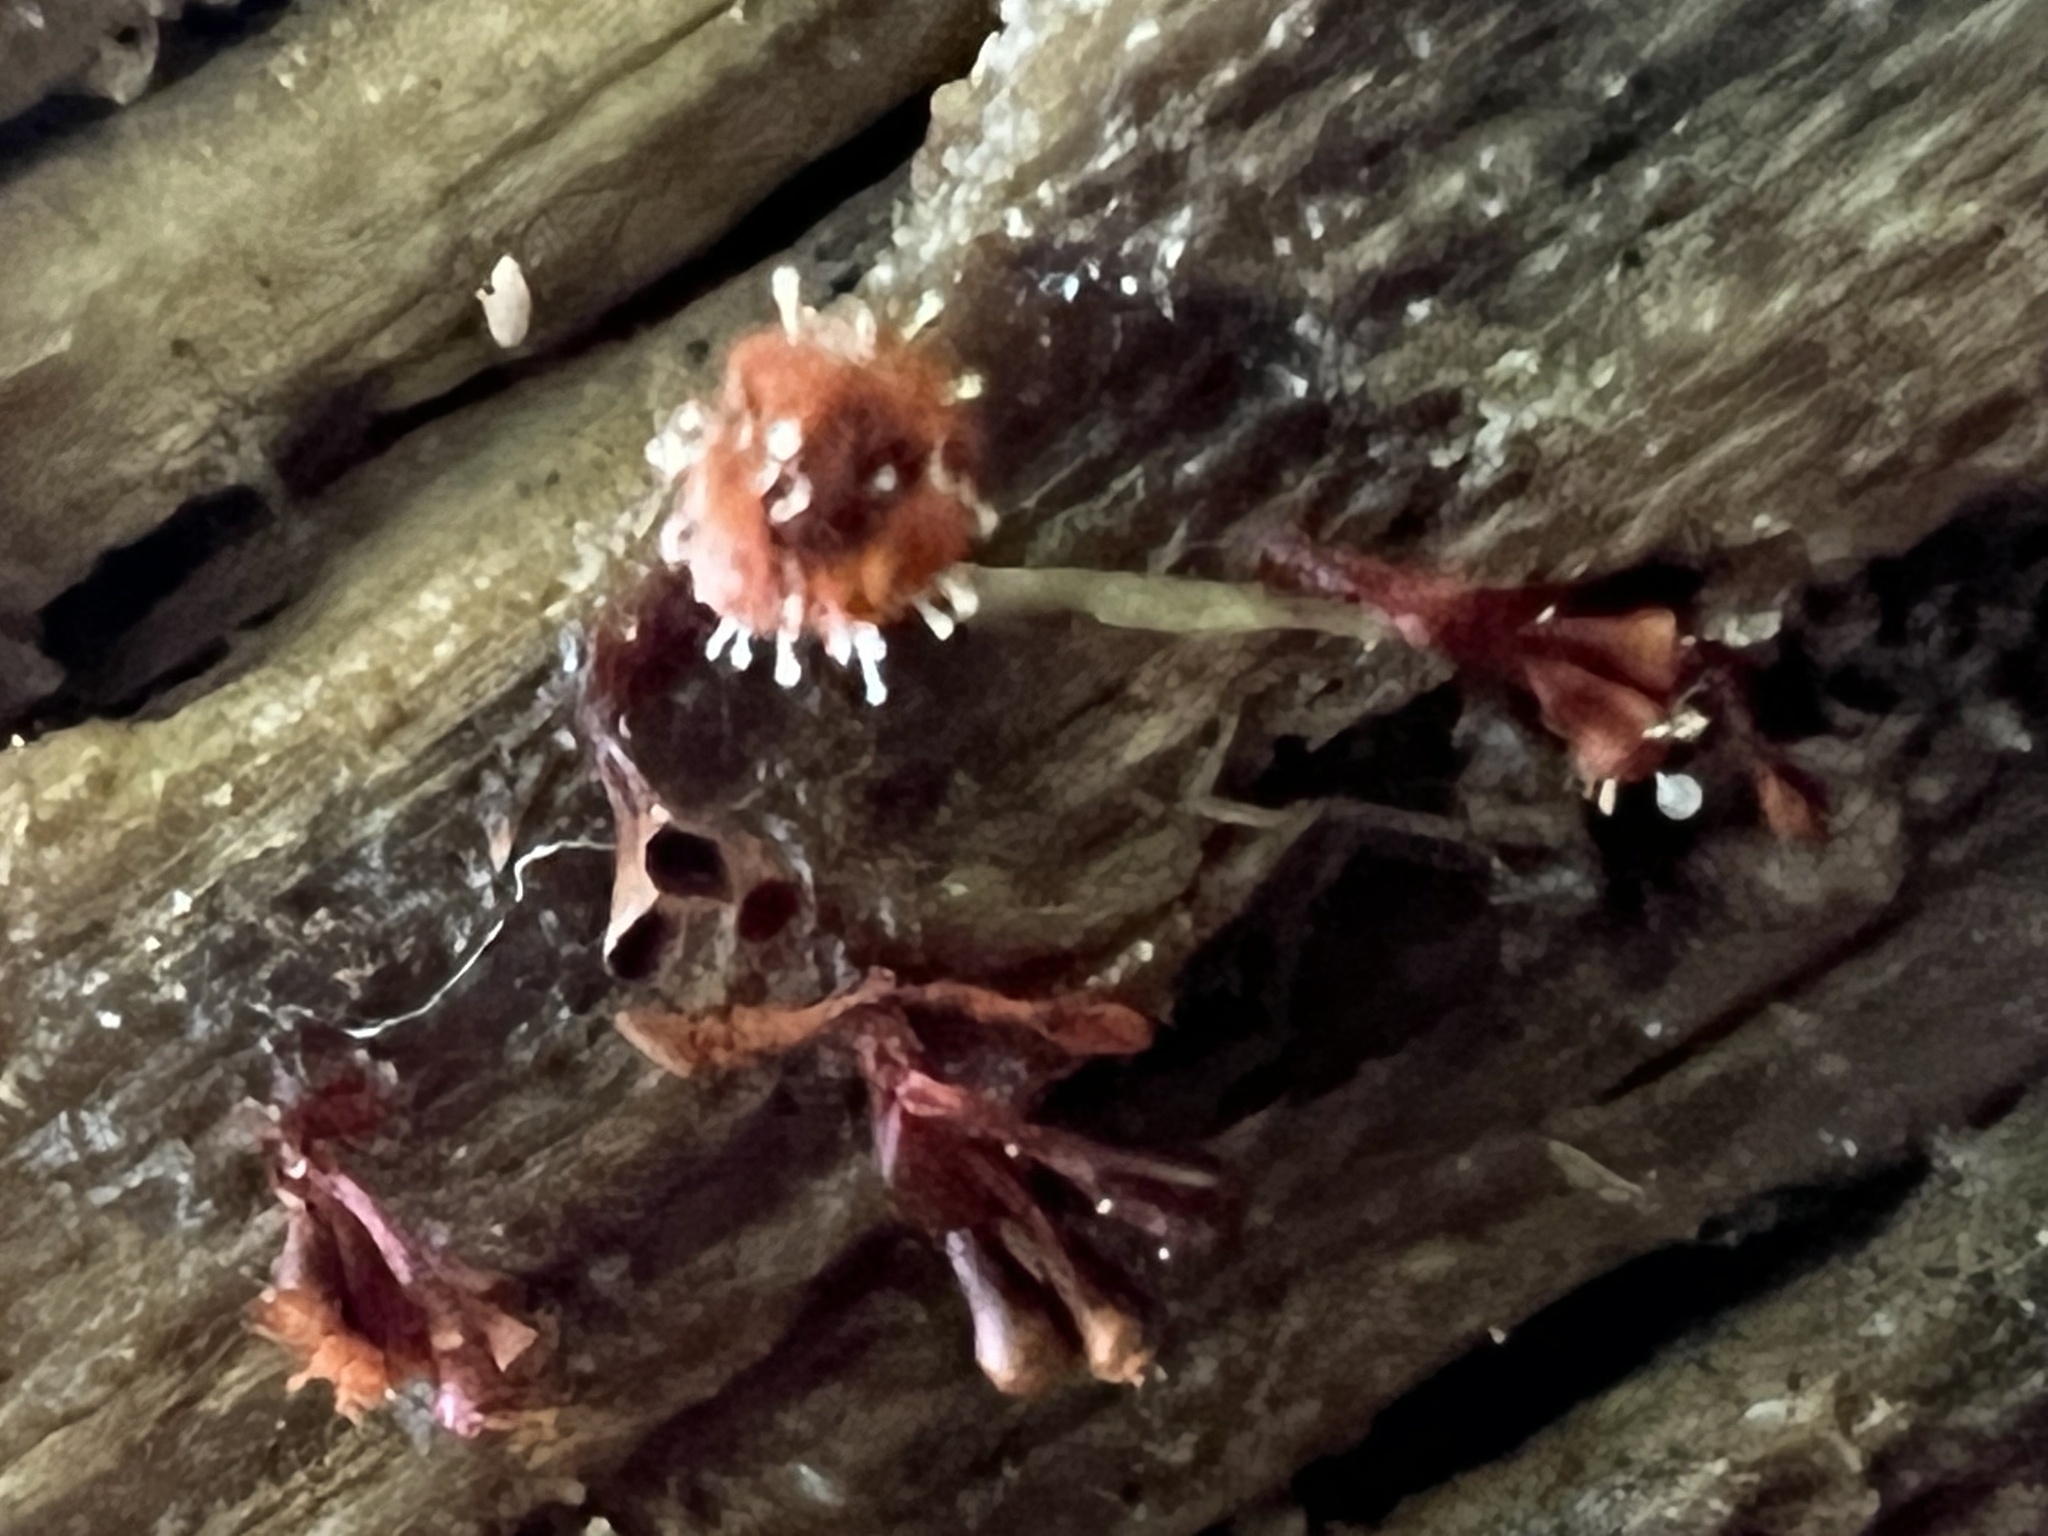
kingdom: Fungi
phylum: Ascomycota
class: Sordariomycetes
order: Hypocreales
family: Ophiocordycipitaceae
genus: Polycephalomyces
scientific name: Polycephalomyces tomentosus
